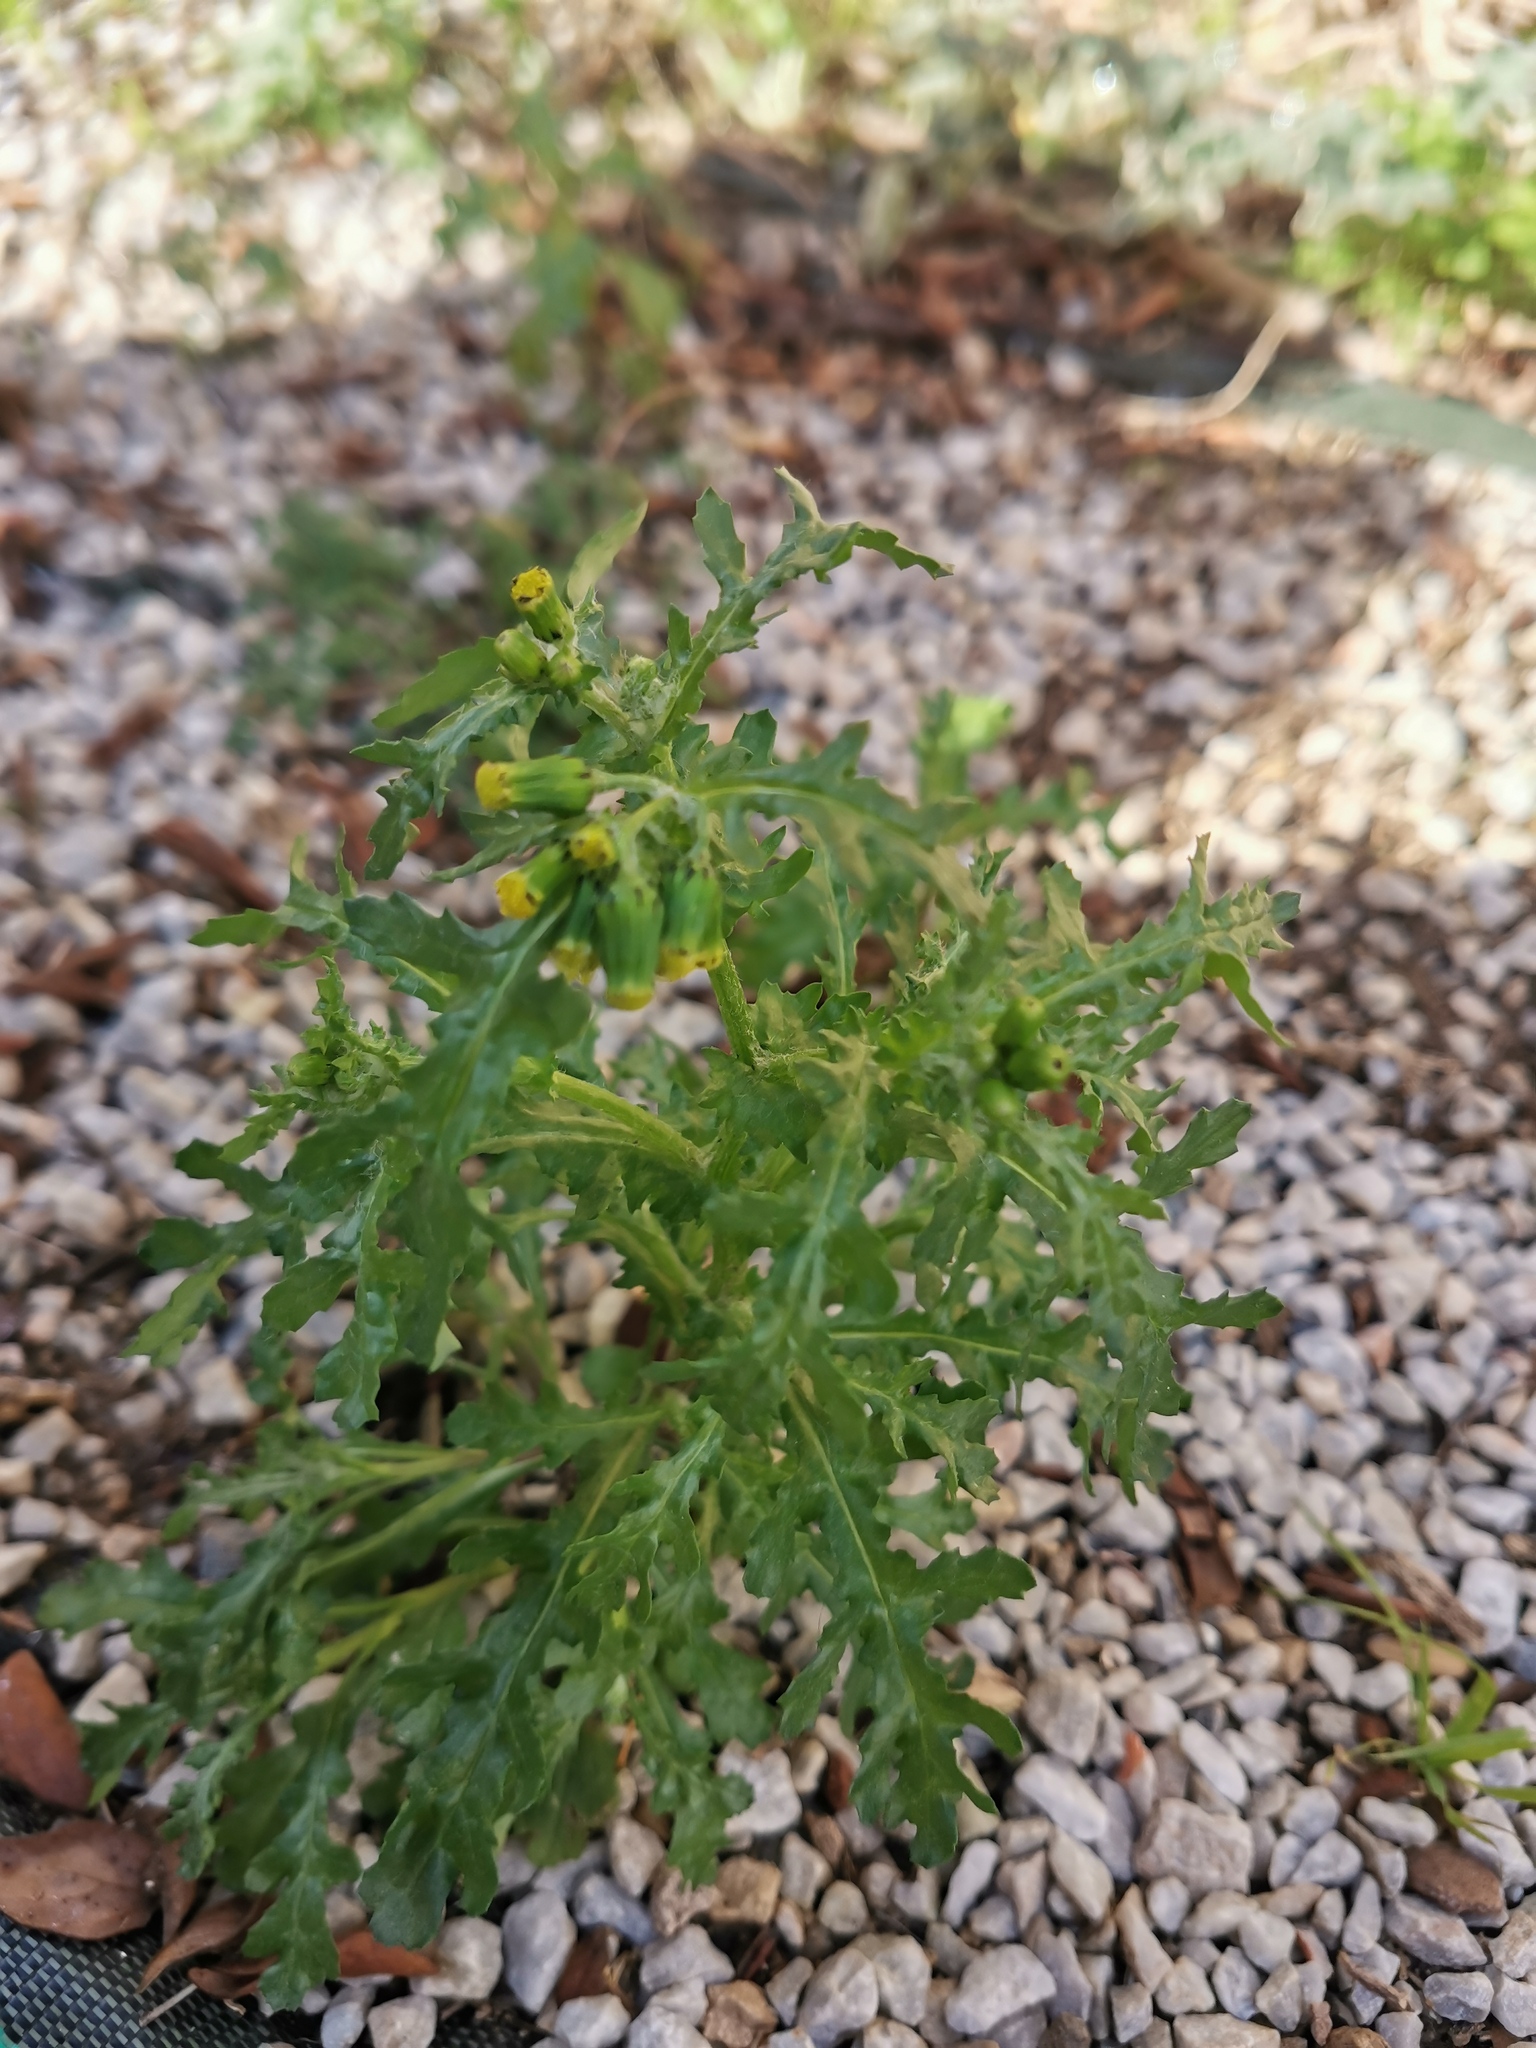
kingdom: Plantae
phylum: Tracheophyta
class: Magnoliopsida
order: Asterales
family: Asteraceae
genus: Senecio
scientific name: Senecio vulgaris
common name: Old-man-in-the-spring
